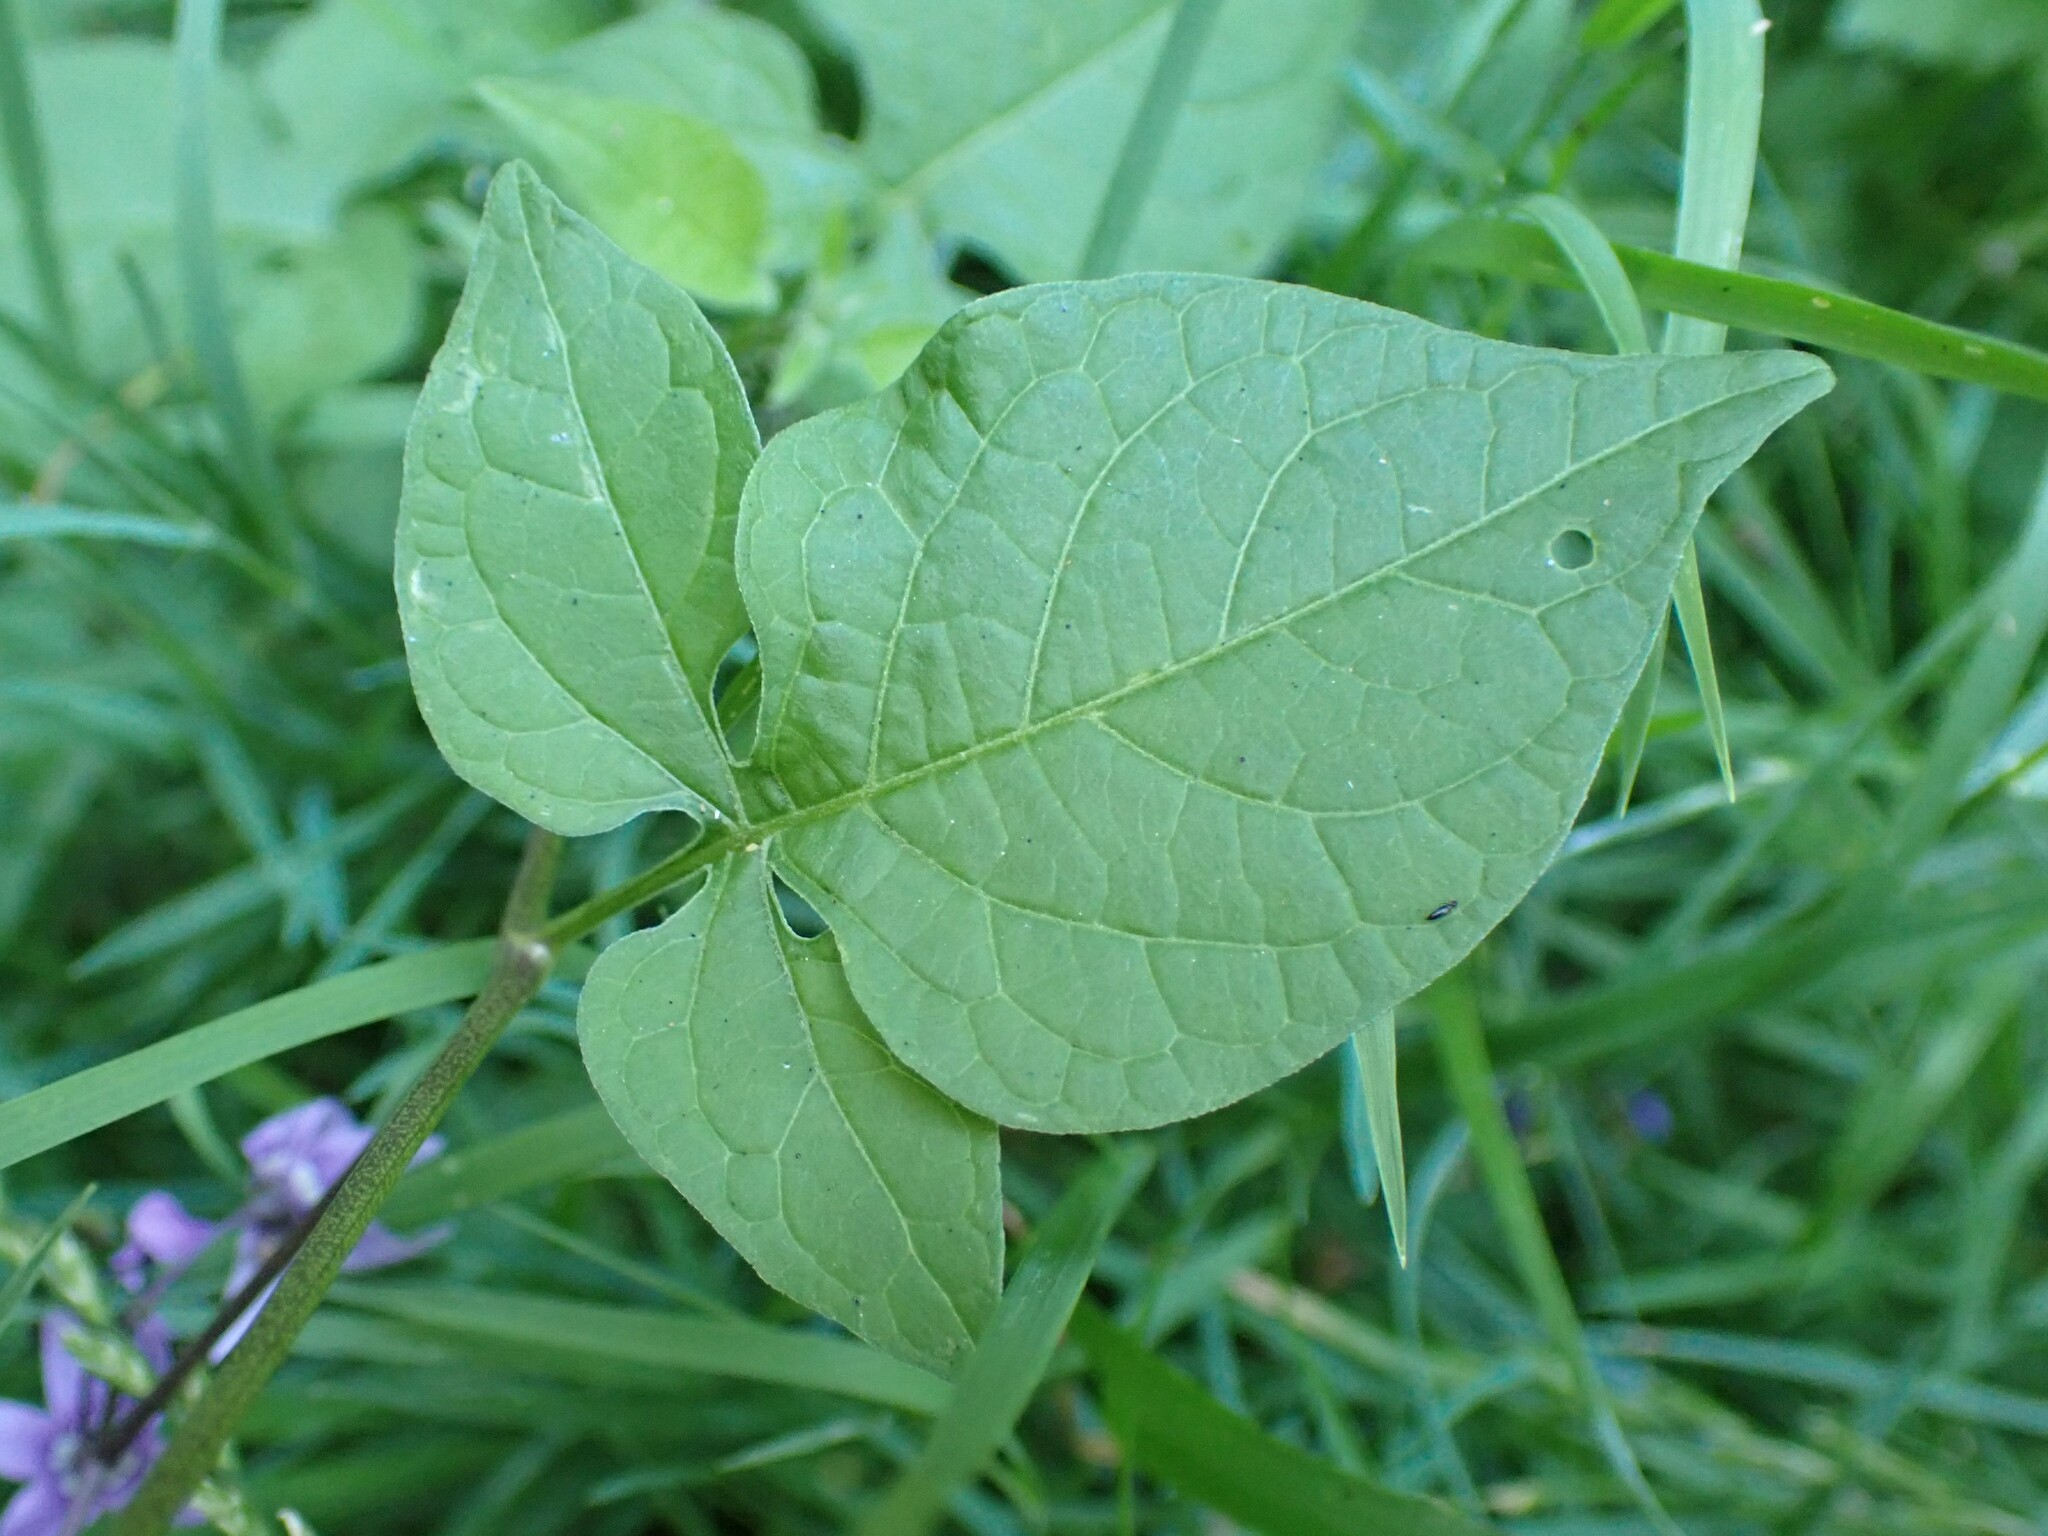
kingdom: Plantae
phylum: Tracheophyta
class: Magnoliopsida
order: Solanales
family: Solanaceae
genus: Solanum
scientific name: Solanum dulcamara
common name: Climbing nightshade
